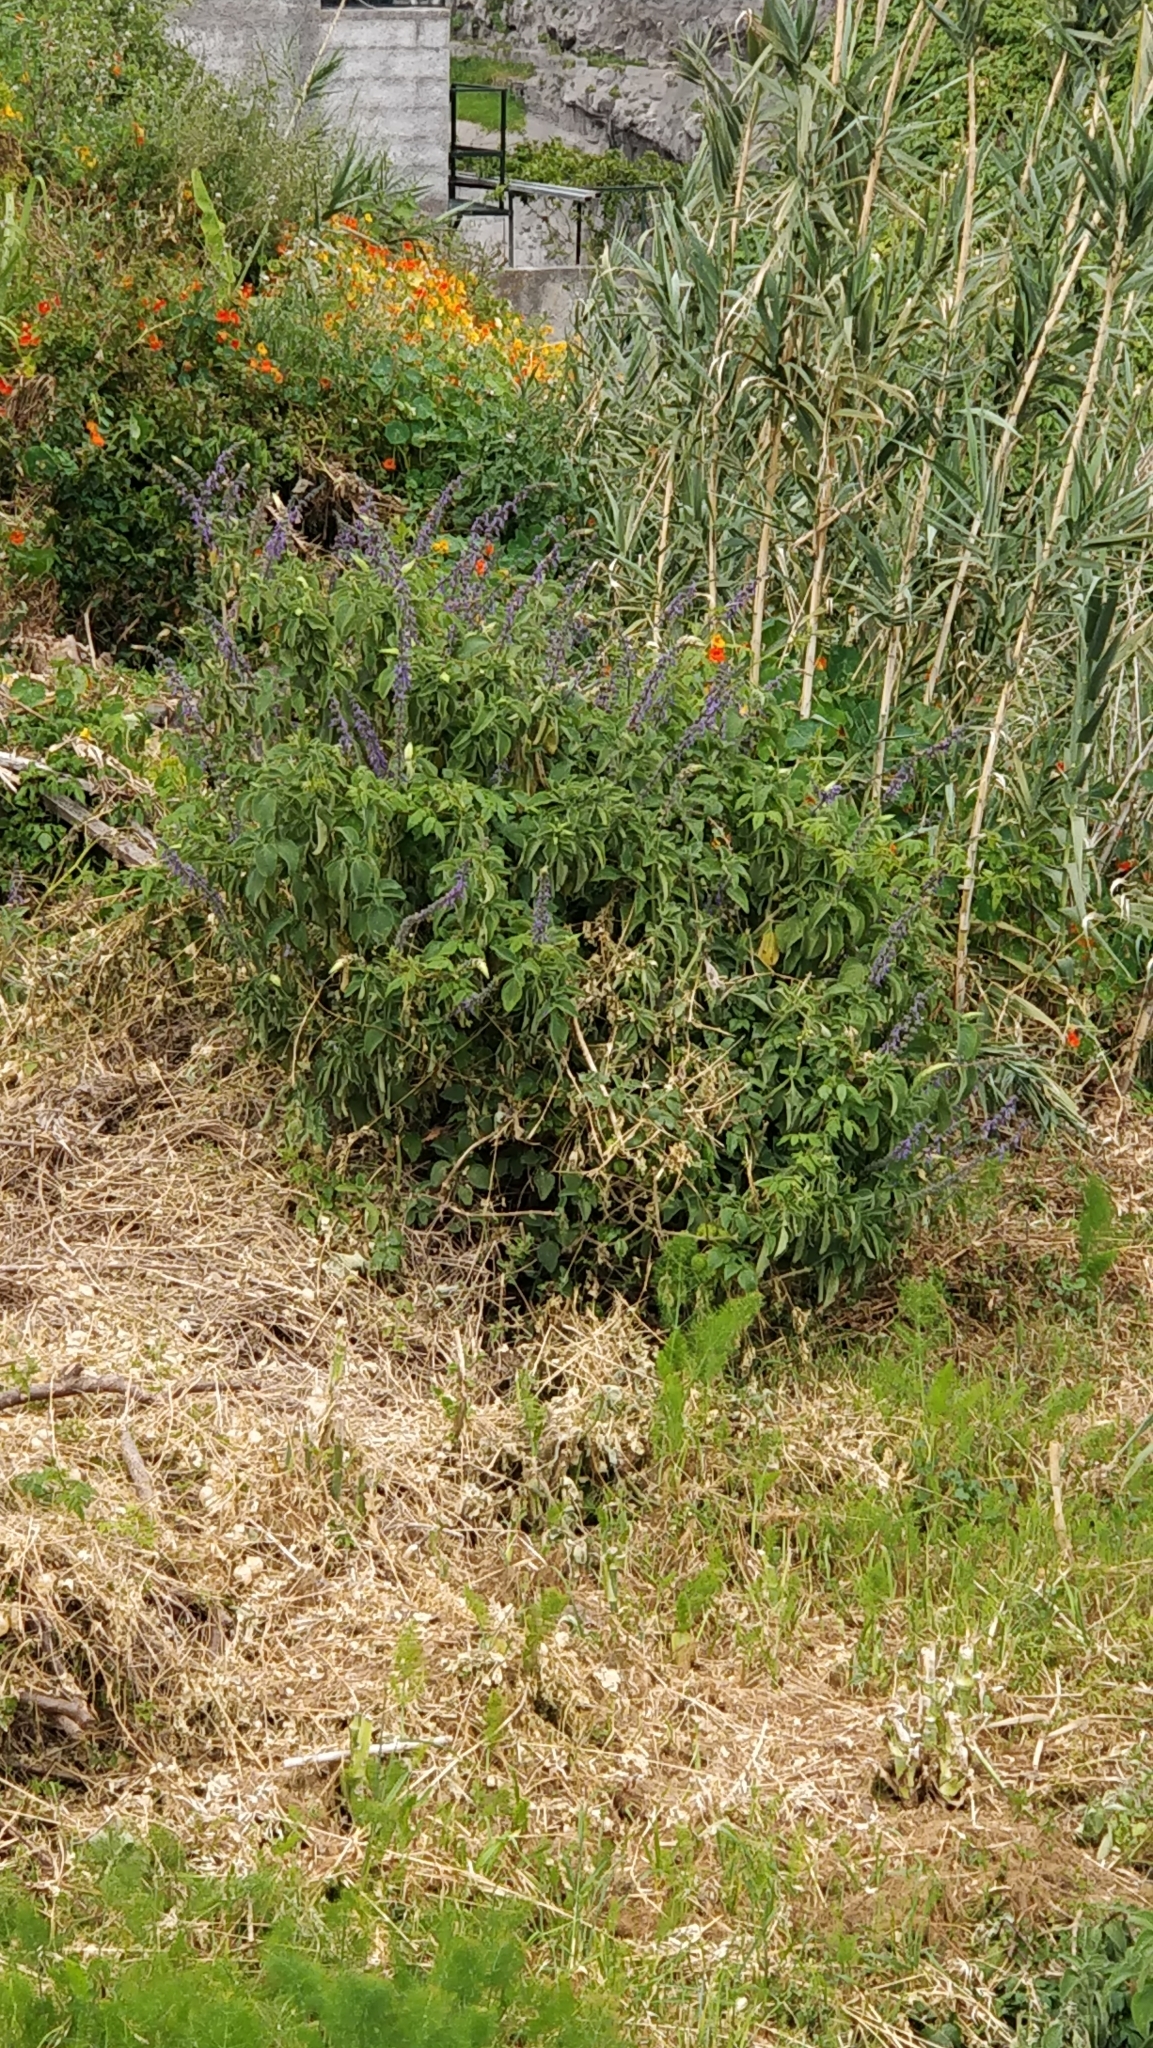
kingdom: Plantae
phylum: Tracheophyta
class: Magnoliopsida
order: Lamiales
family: Lamiaceae
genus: Coleus
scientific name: Coleus barbatus
